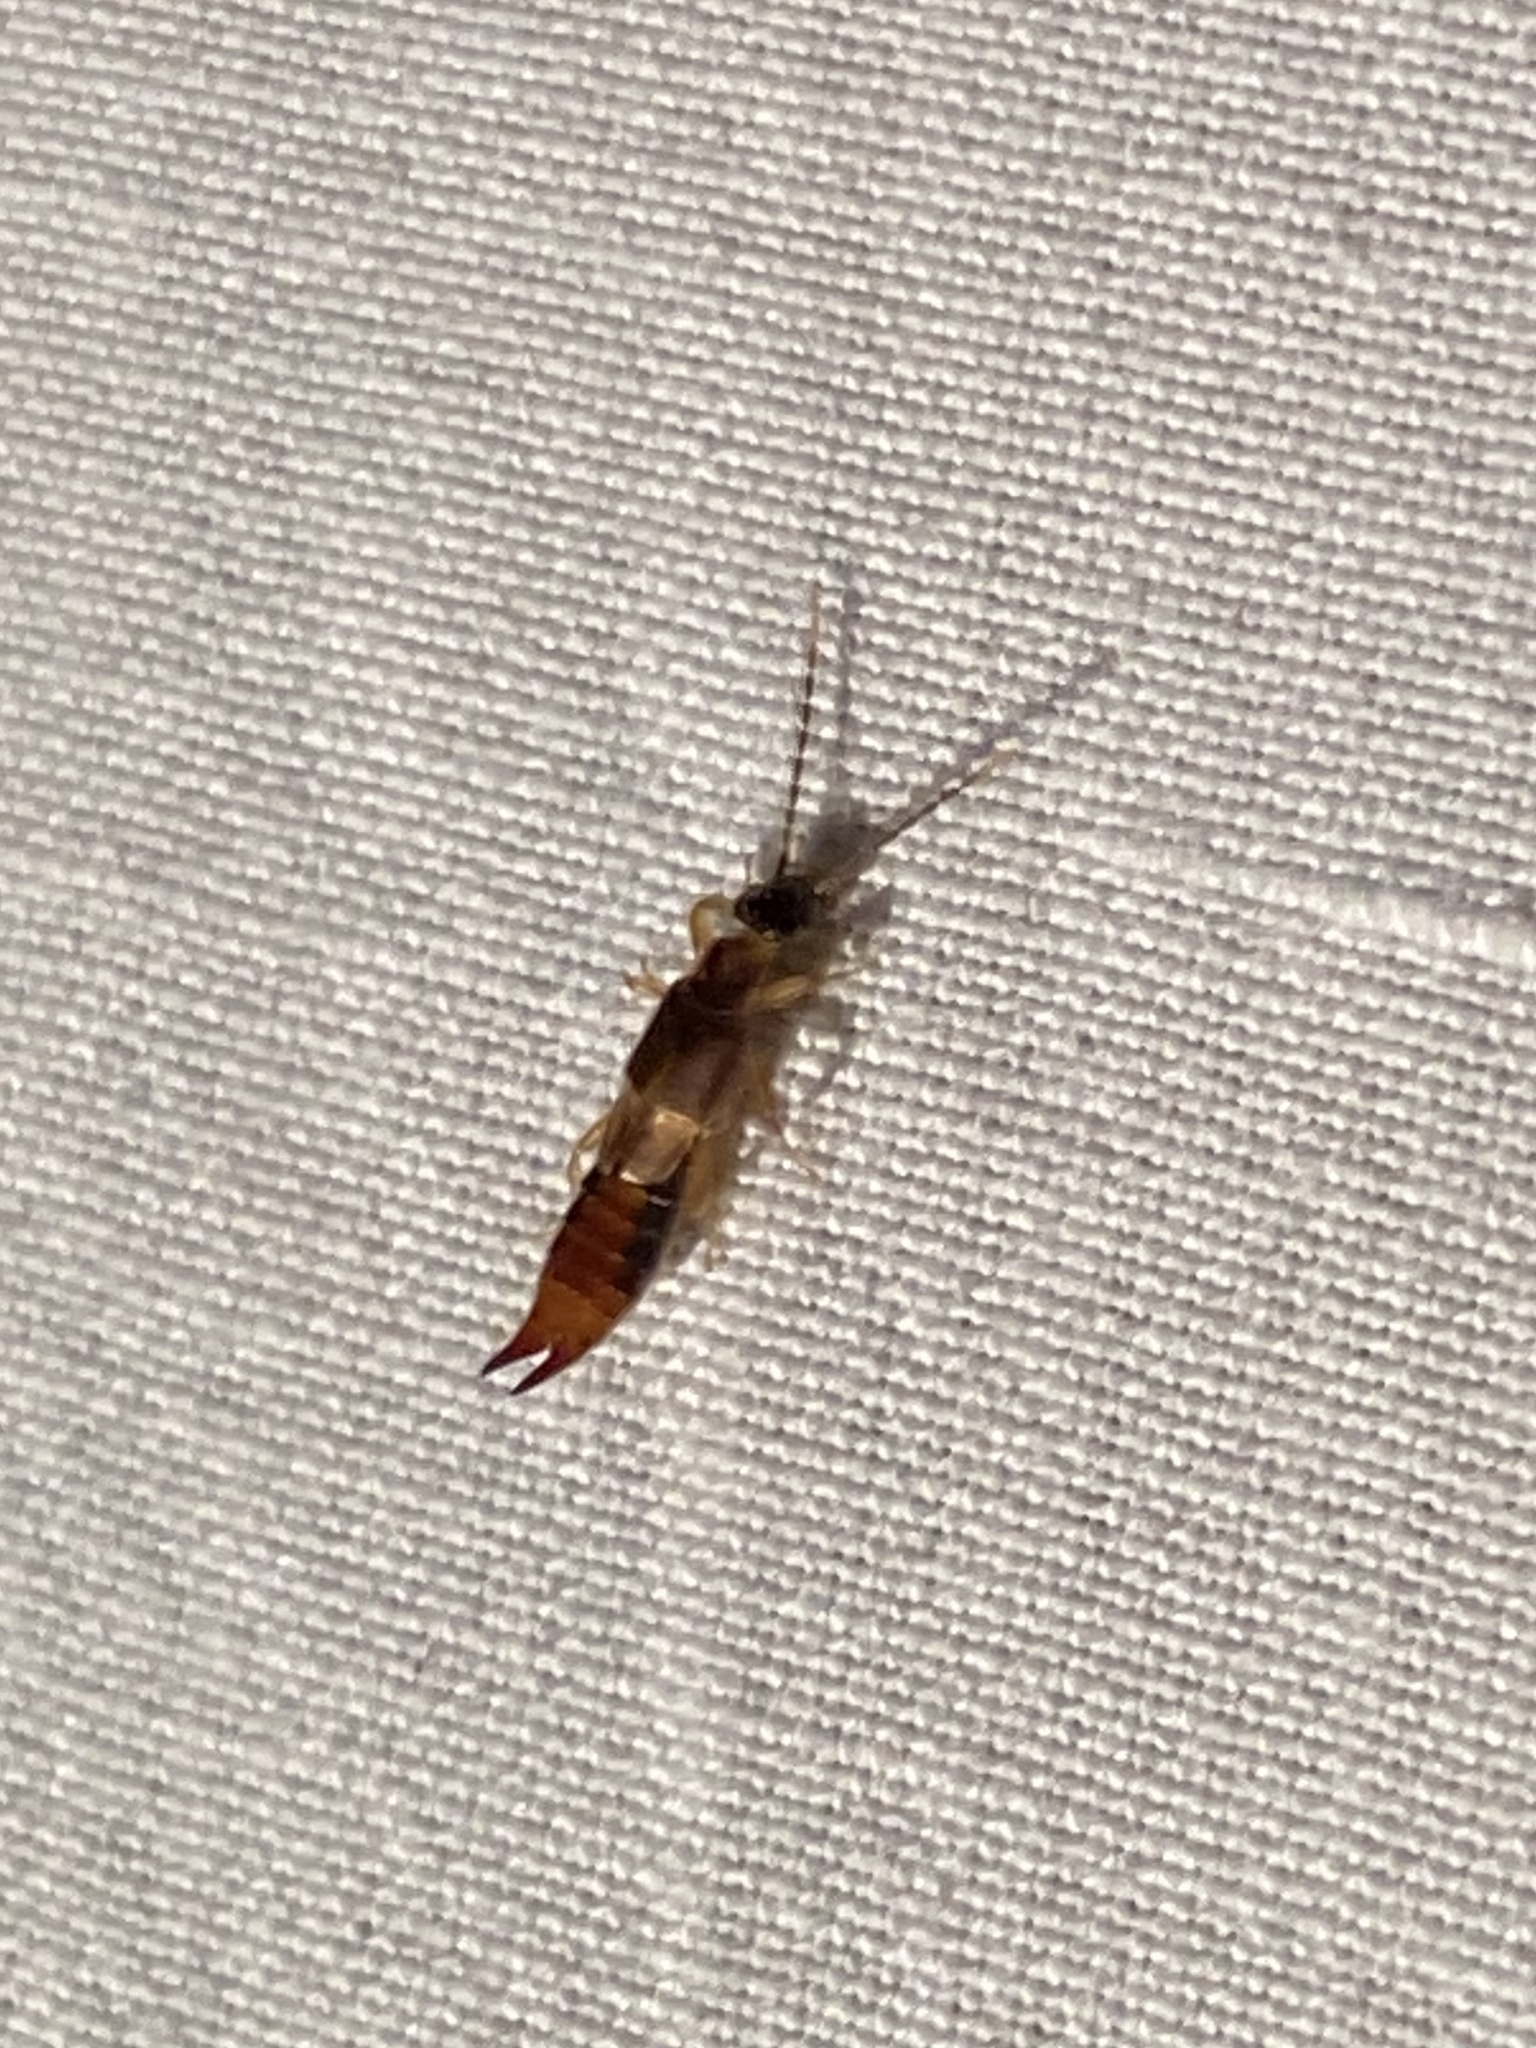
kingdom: Animalia
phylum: Arthropoda
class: Insecta
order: Dermaptera
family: Spongiphoridae
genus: Labia
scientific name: Labia minor
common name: Lesser earwig
